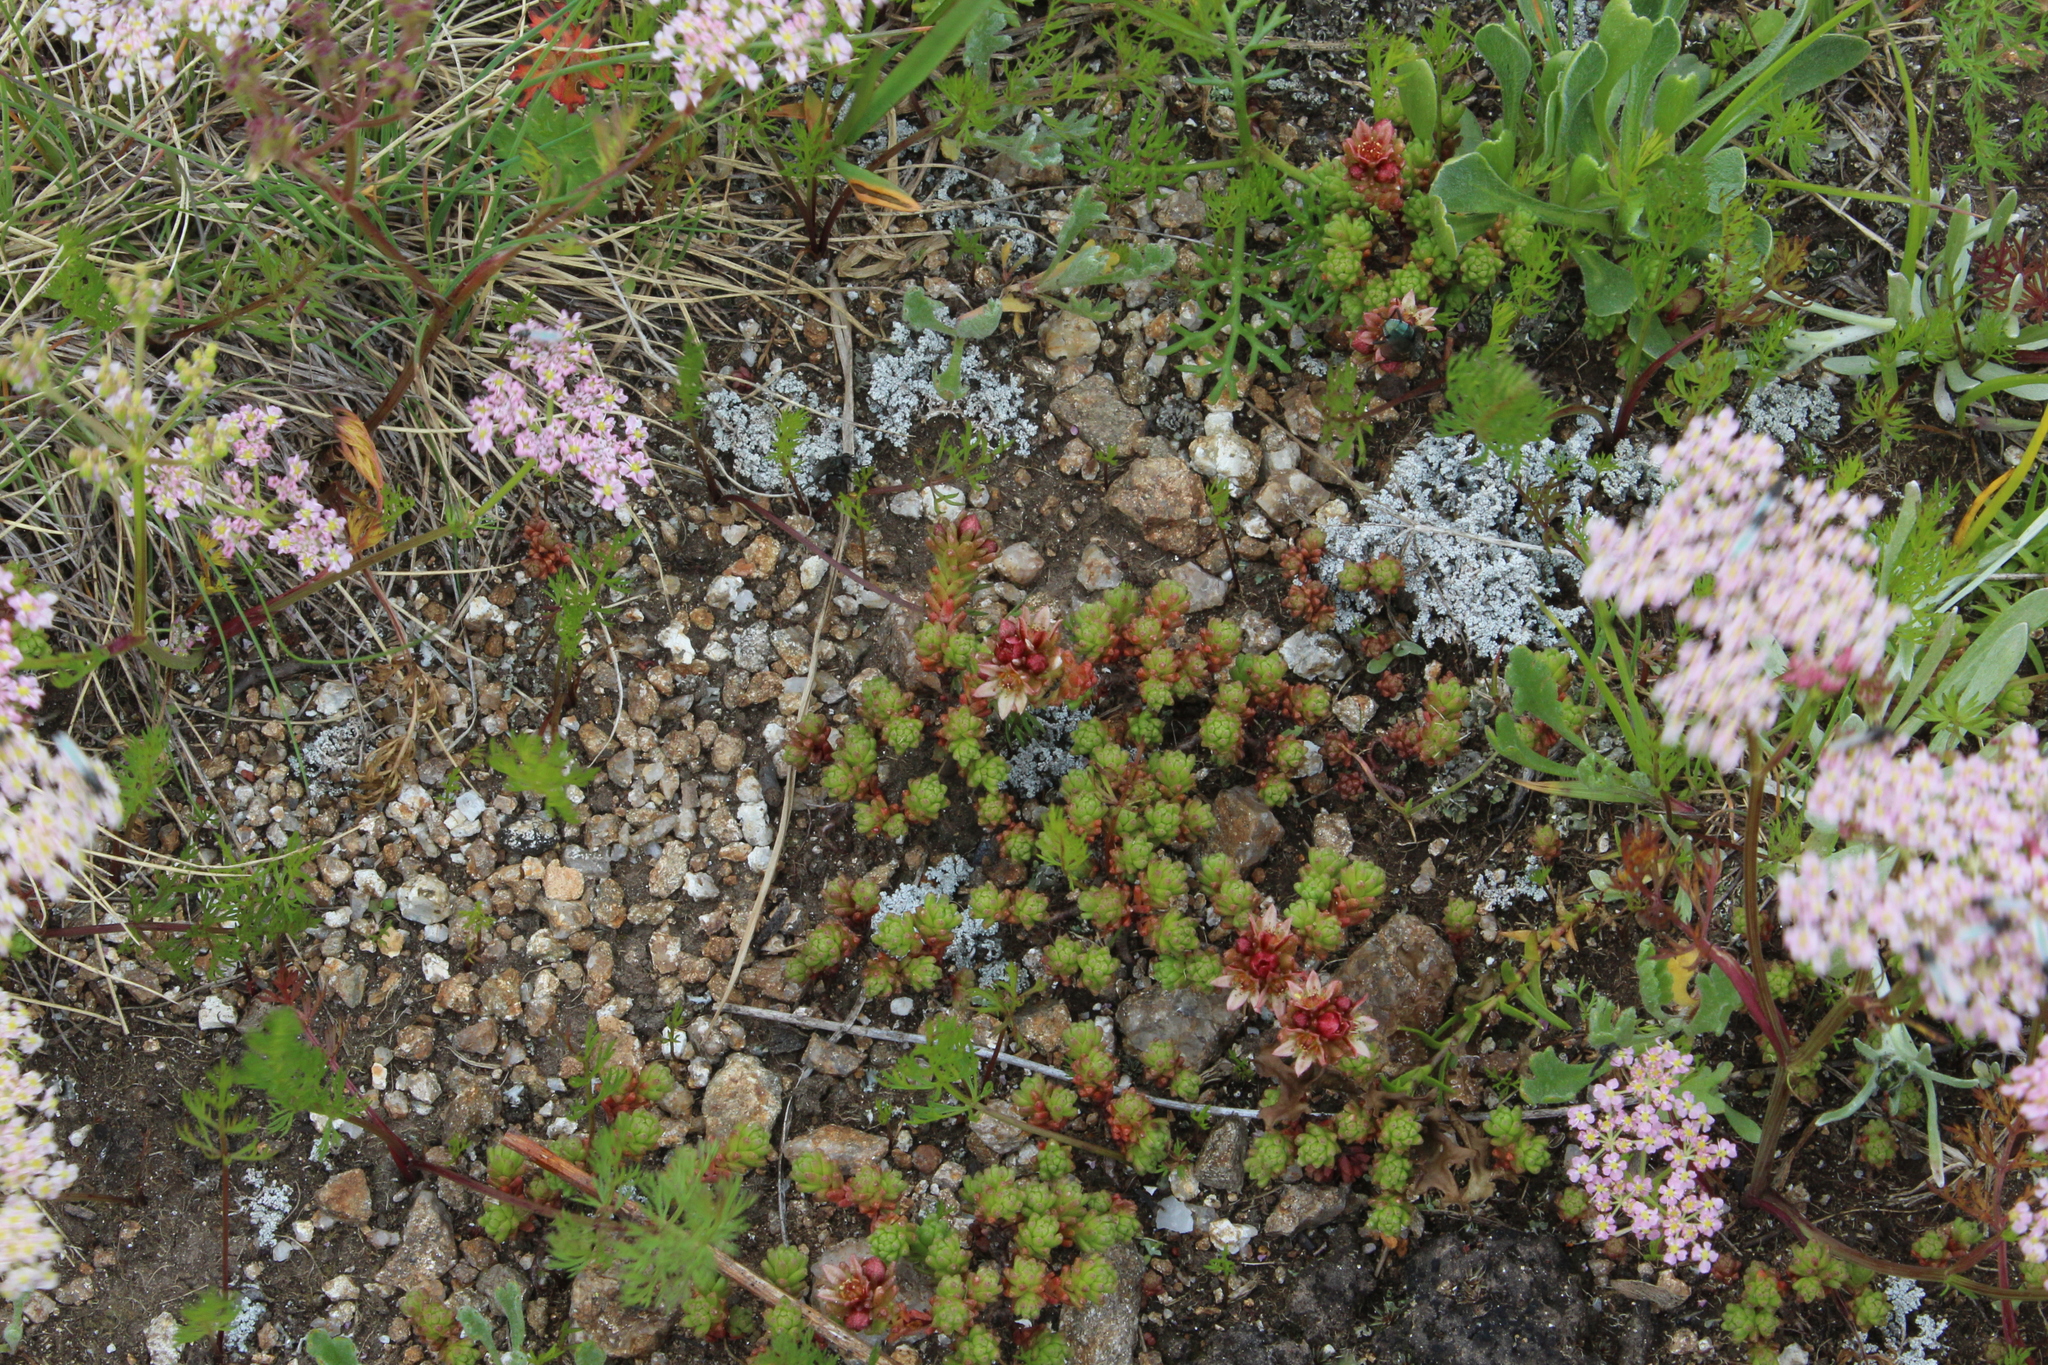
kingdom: Plantae
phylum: Tracheophyta
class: Magnoliopsida
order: Saxifragales
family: Crassulaceae
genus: Sedum
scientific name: Sedum tenellum
